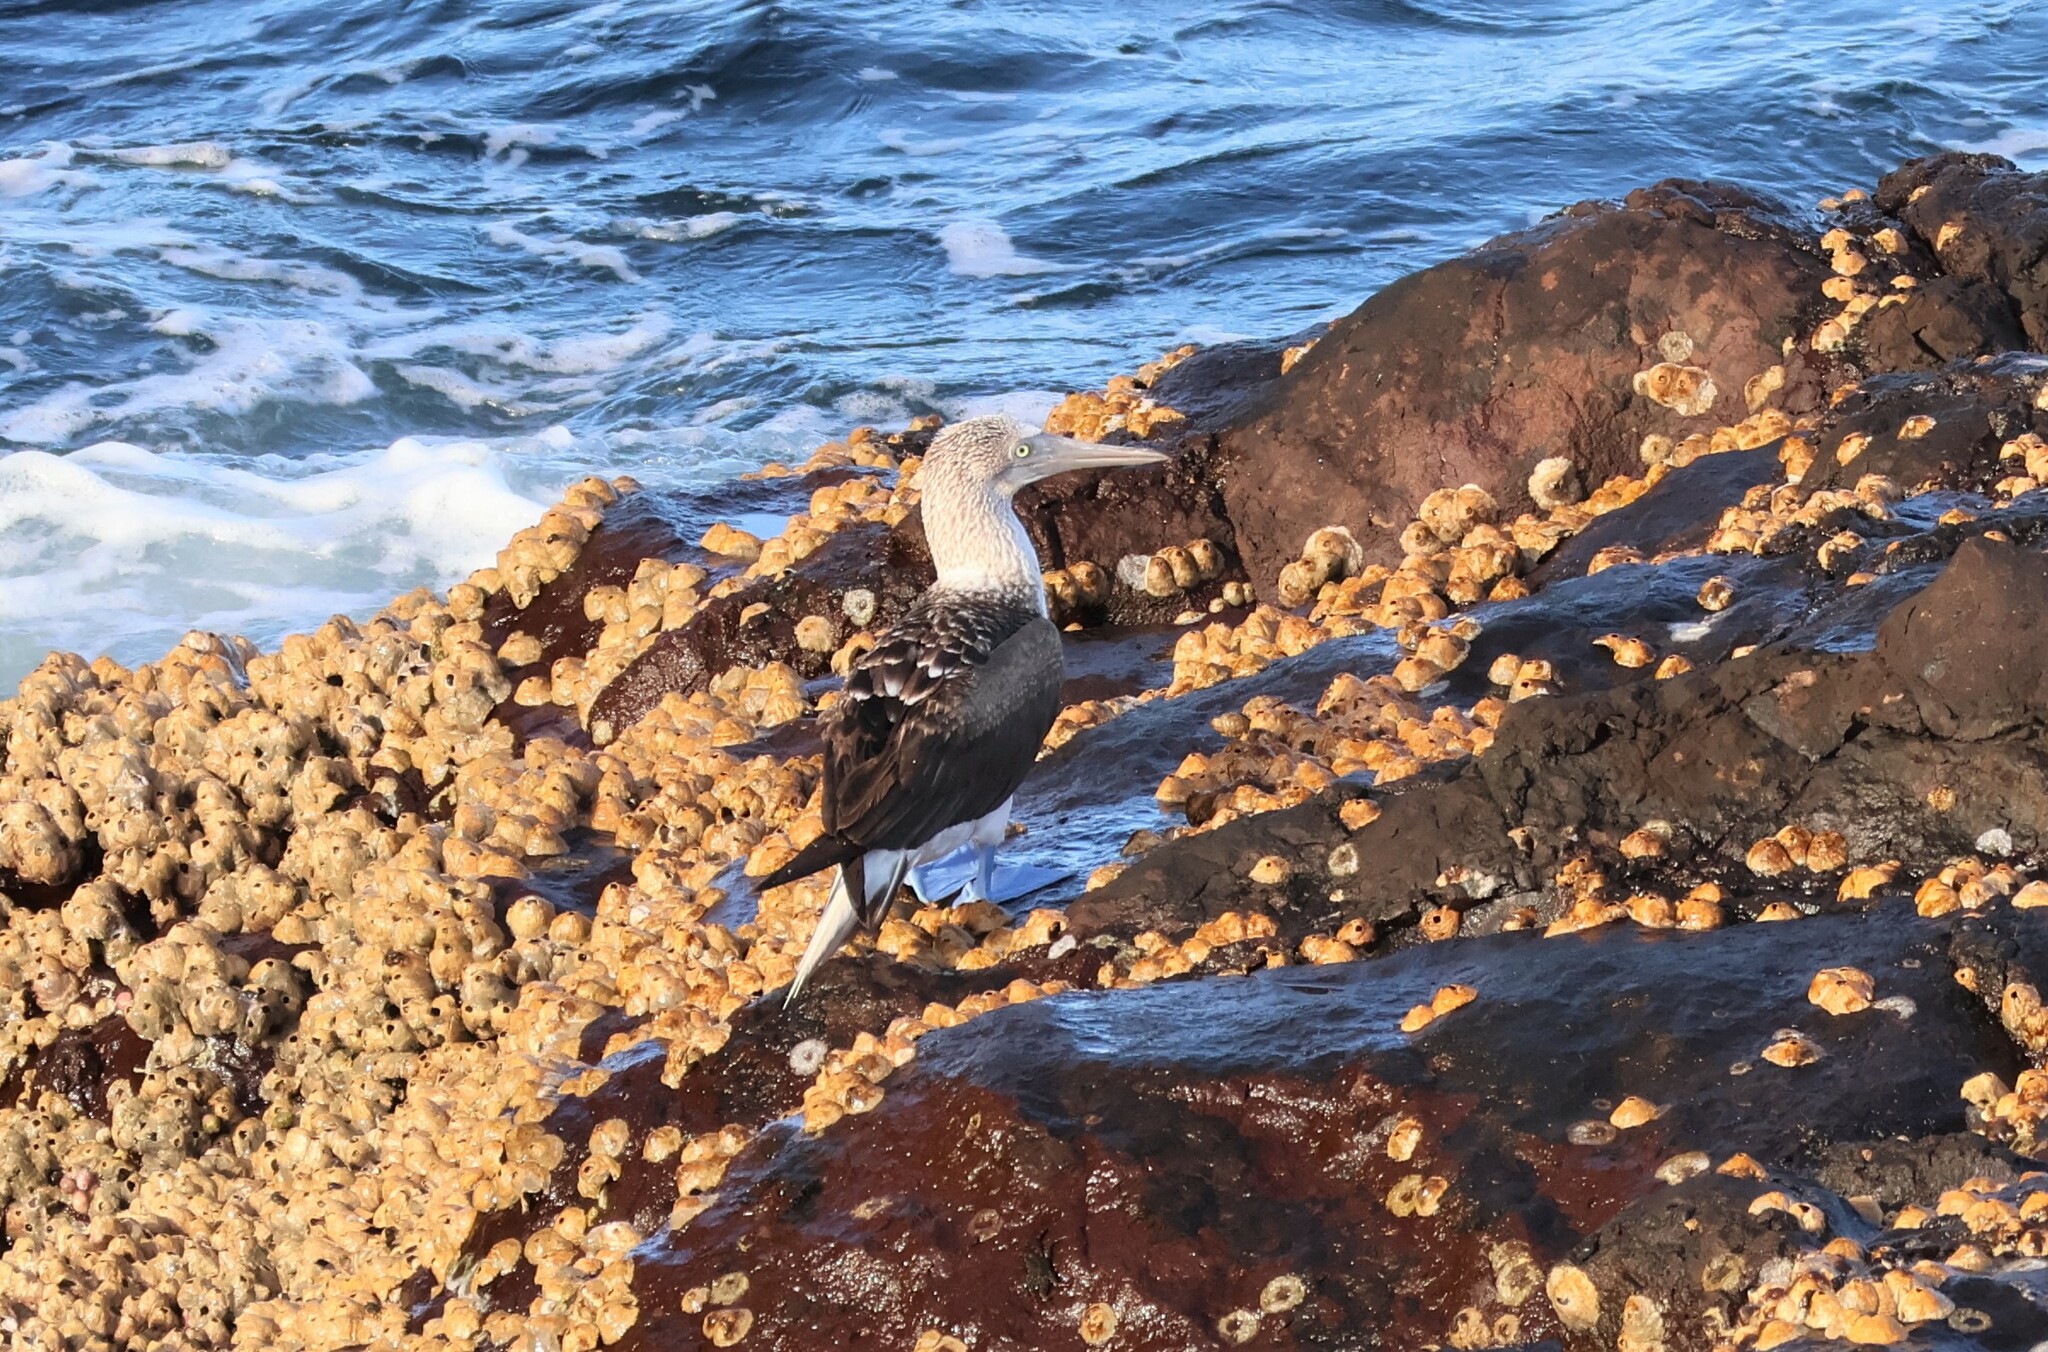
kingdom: Animalia
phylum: Chordata
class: Aves
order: Suliformes
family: Sulidae
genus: Sula
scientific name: Sula nebouxii
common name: Blue-footed booby
